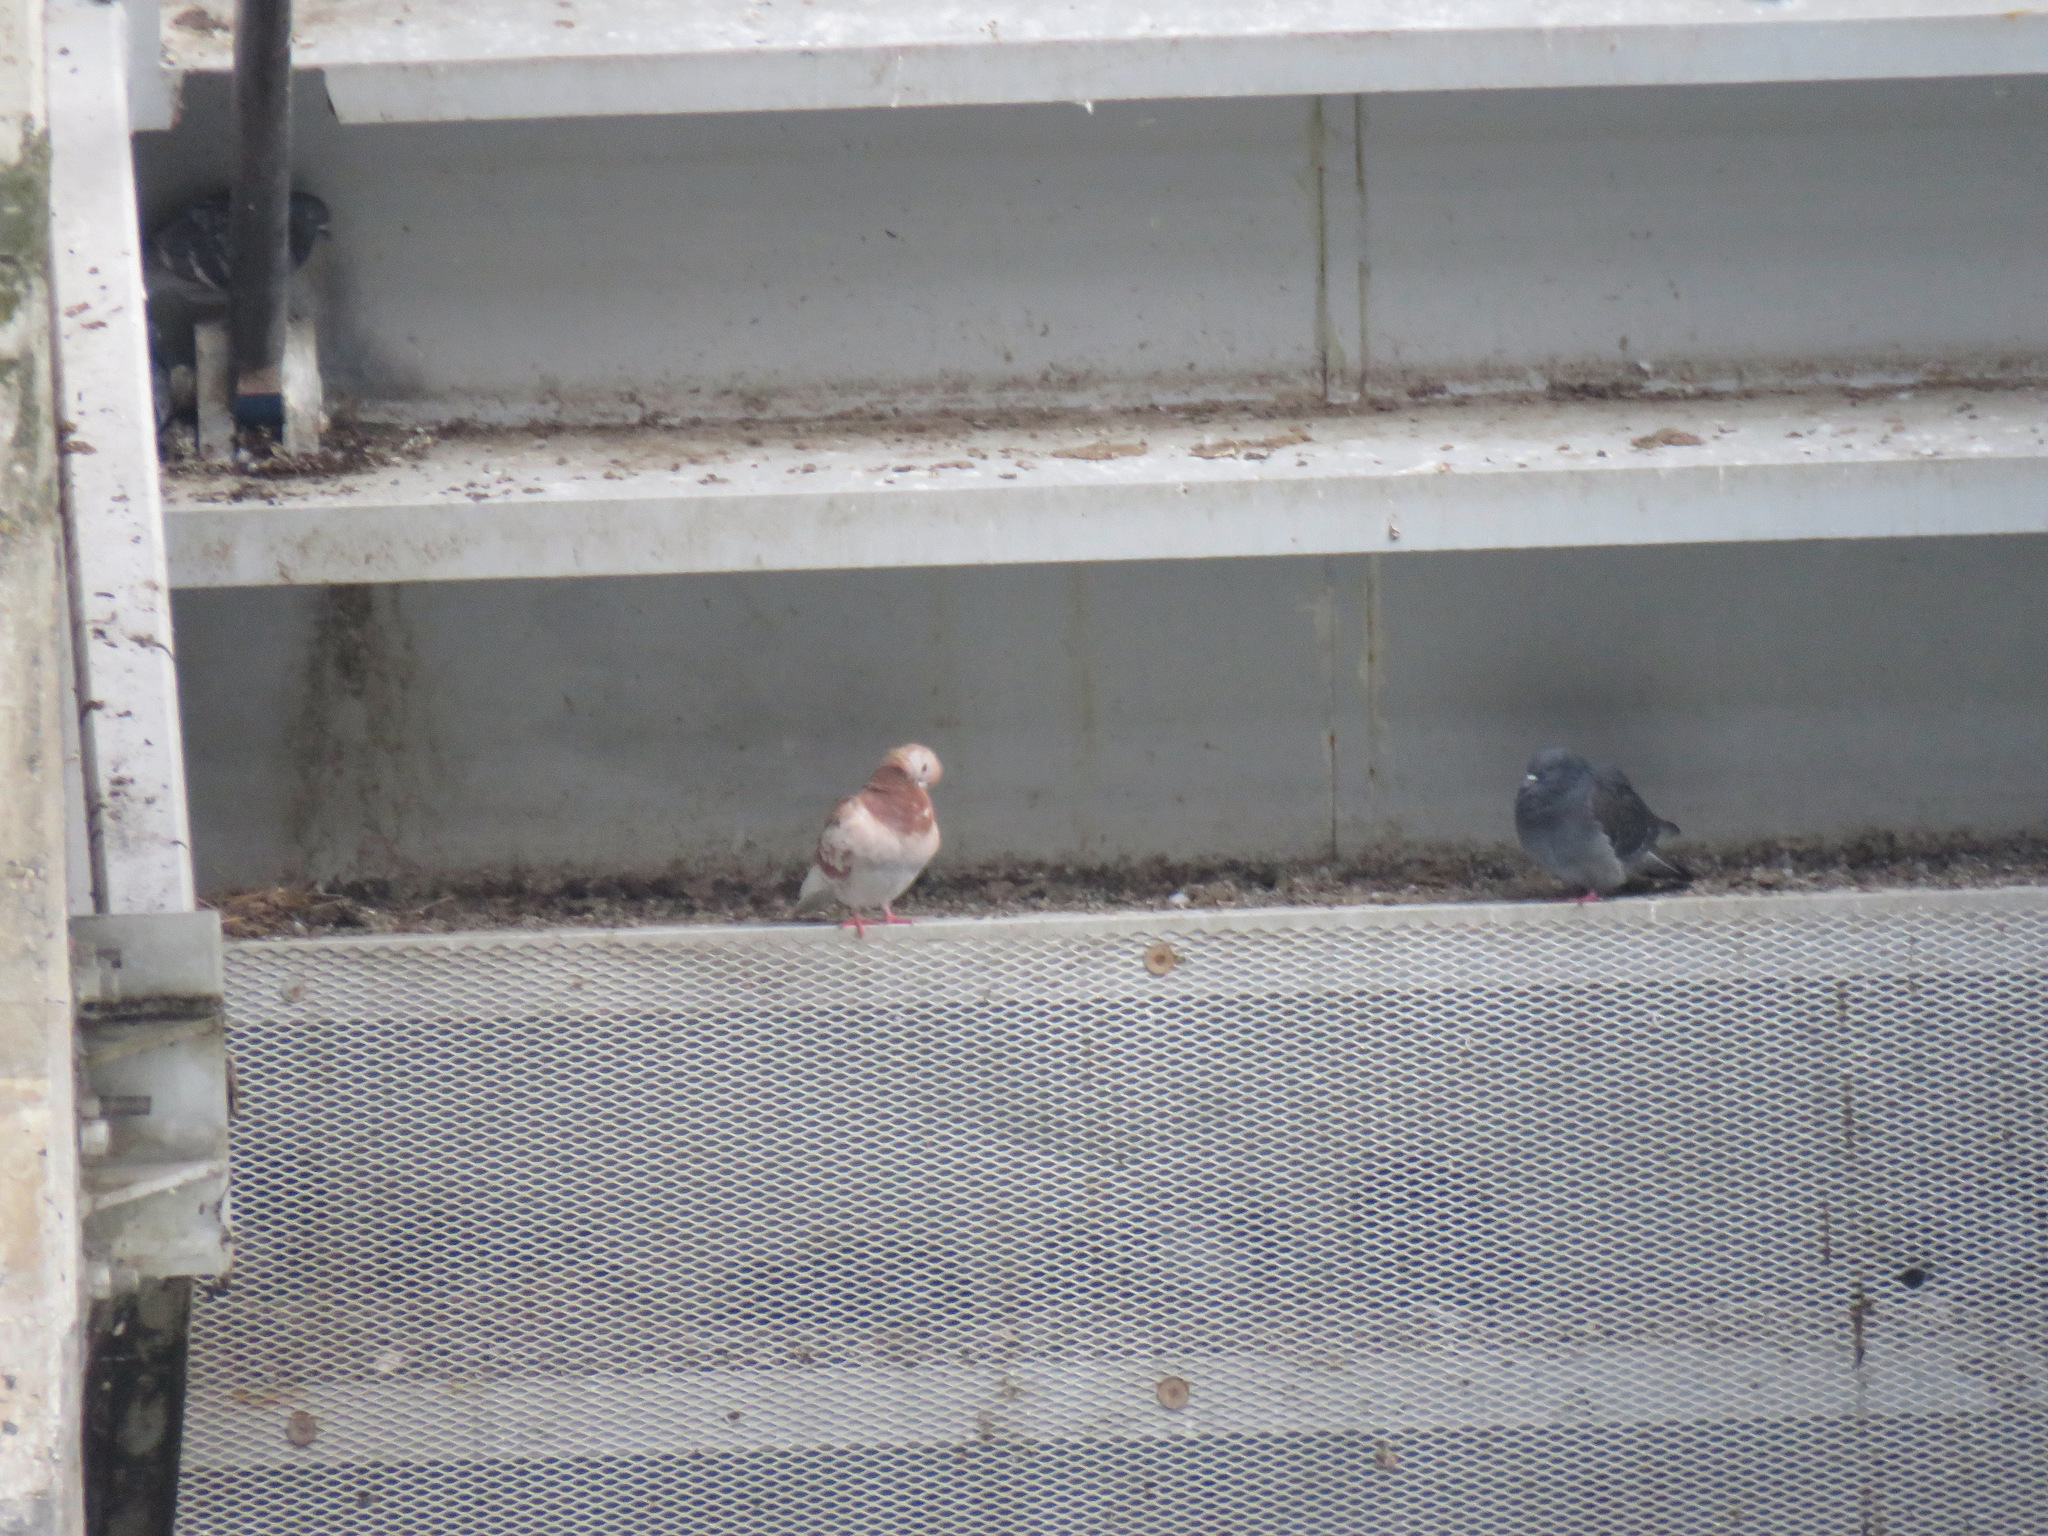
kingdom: Animalia
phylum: Chordata
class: Aves
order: Columbiformes
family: Columbidae
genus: Columba
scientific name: Columba livia
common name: Rock pigeon
